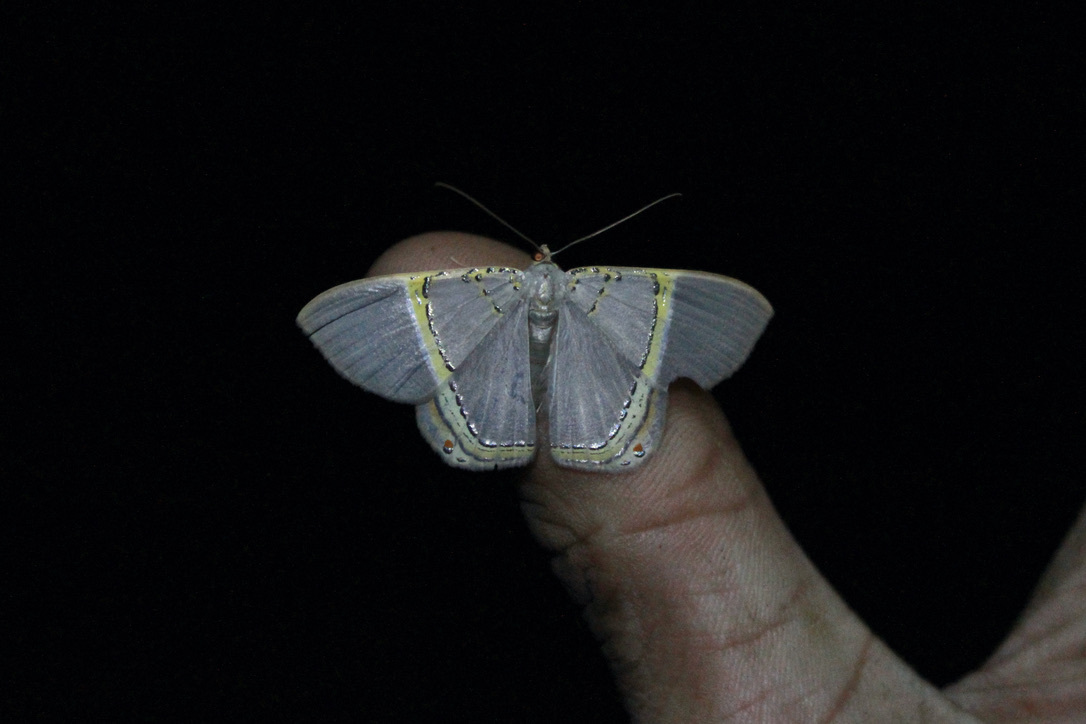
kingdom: Animalia
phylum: Arthropoda
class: Insecta
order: Lepidoptera
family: Geometridae
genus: Phrygionis
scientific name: Phrygionis privignaria
